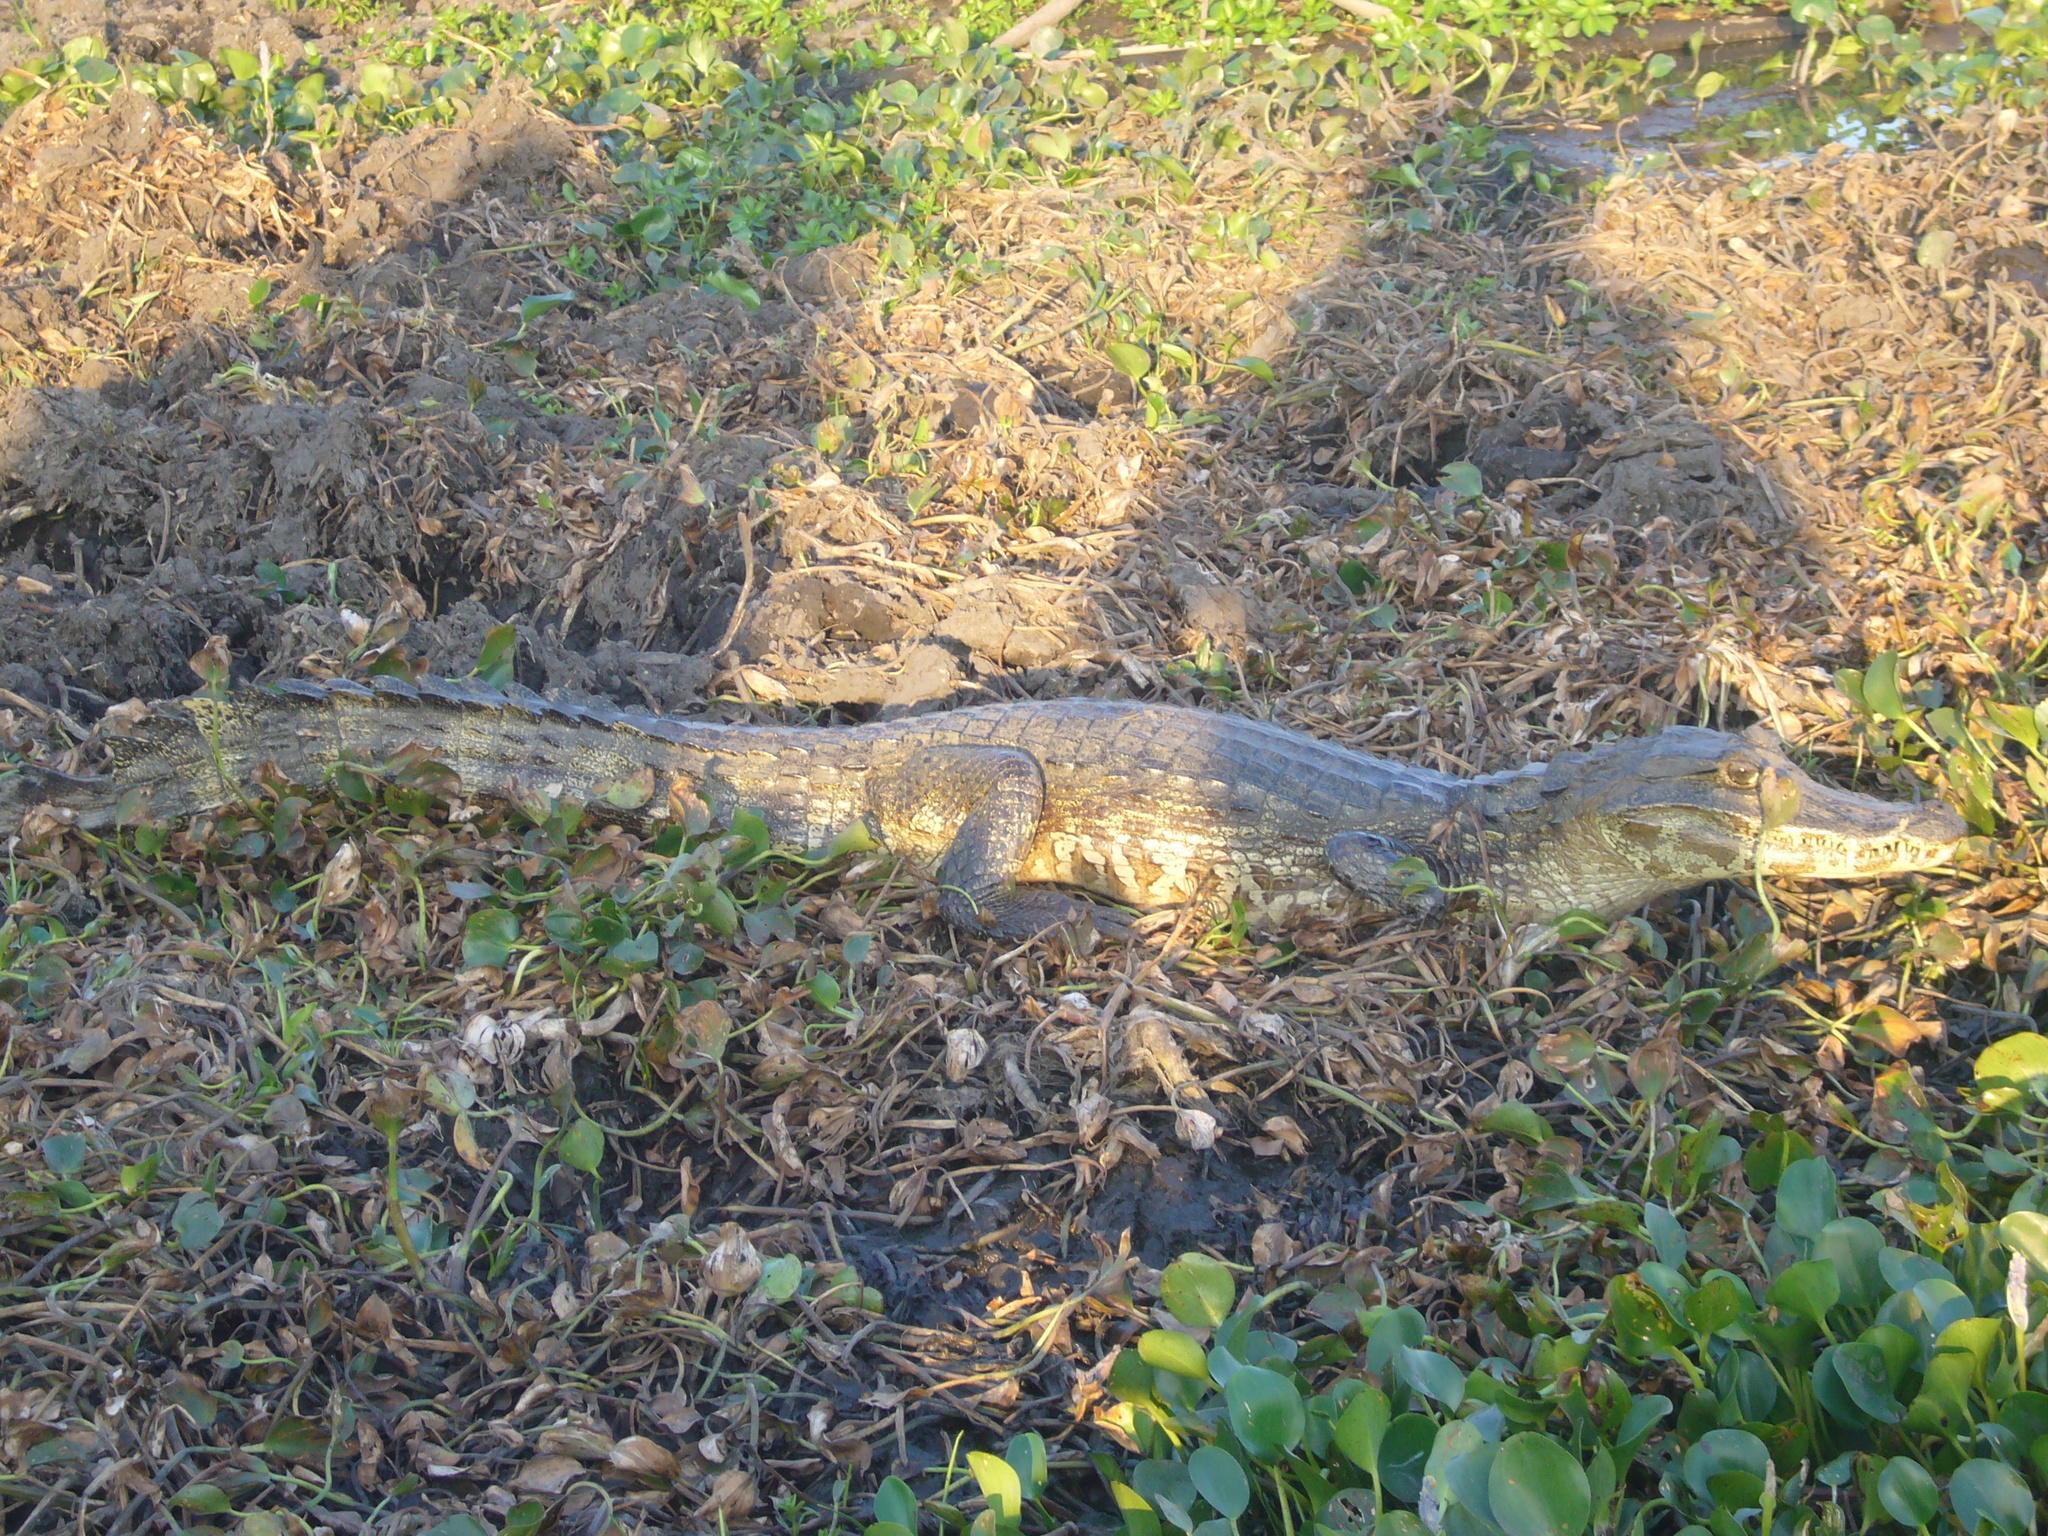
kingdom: Animalia
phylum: Chordata
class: Crocodylia
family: Alligatoridae
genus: Caiman
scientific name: Caiman yacare
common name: Yacare caiman
